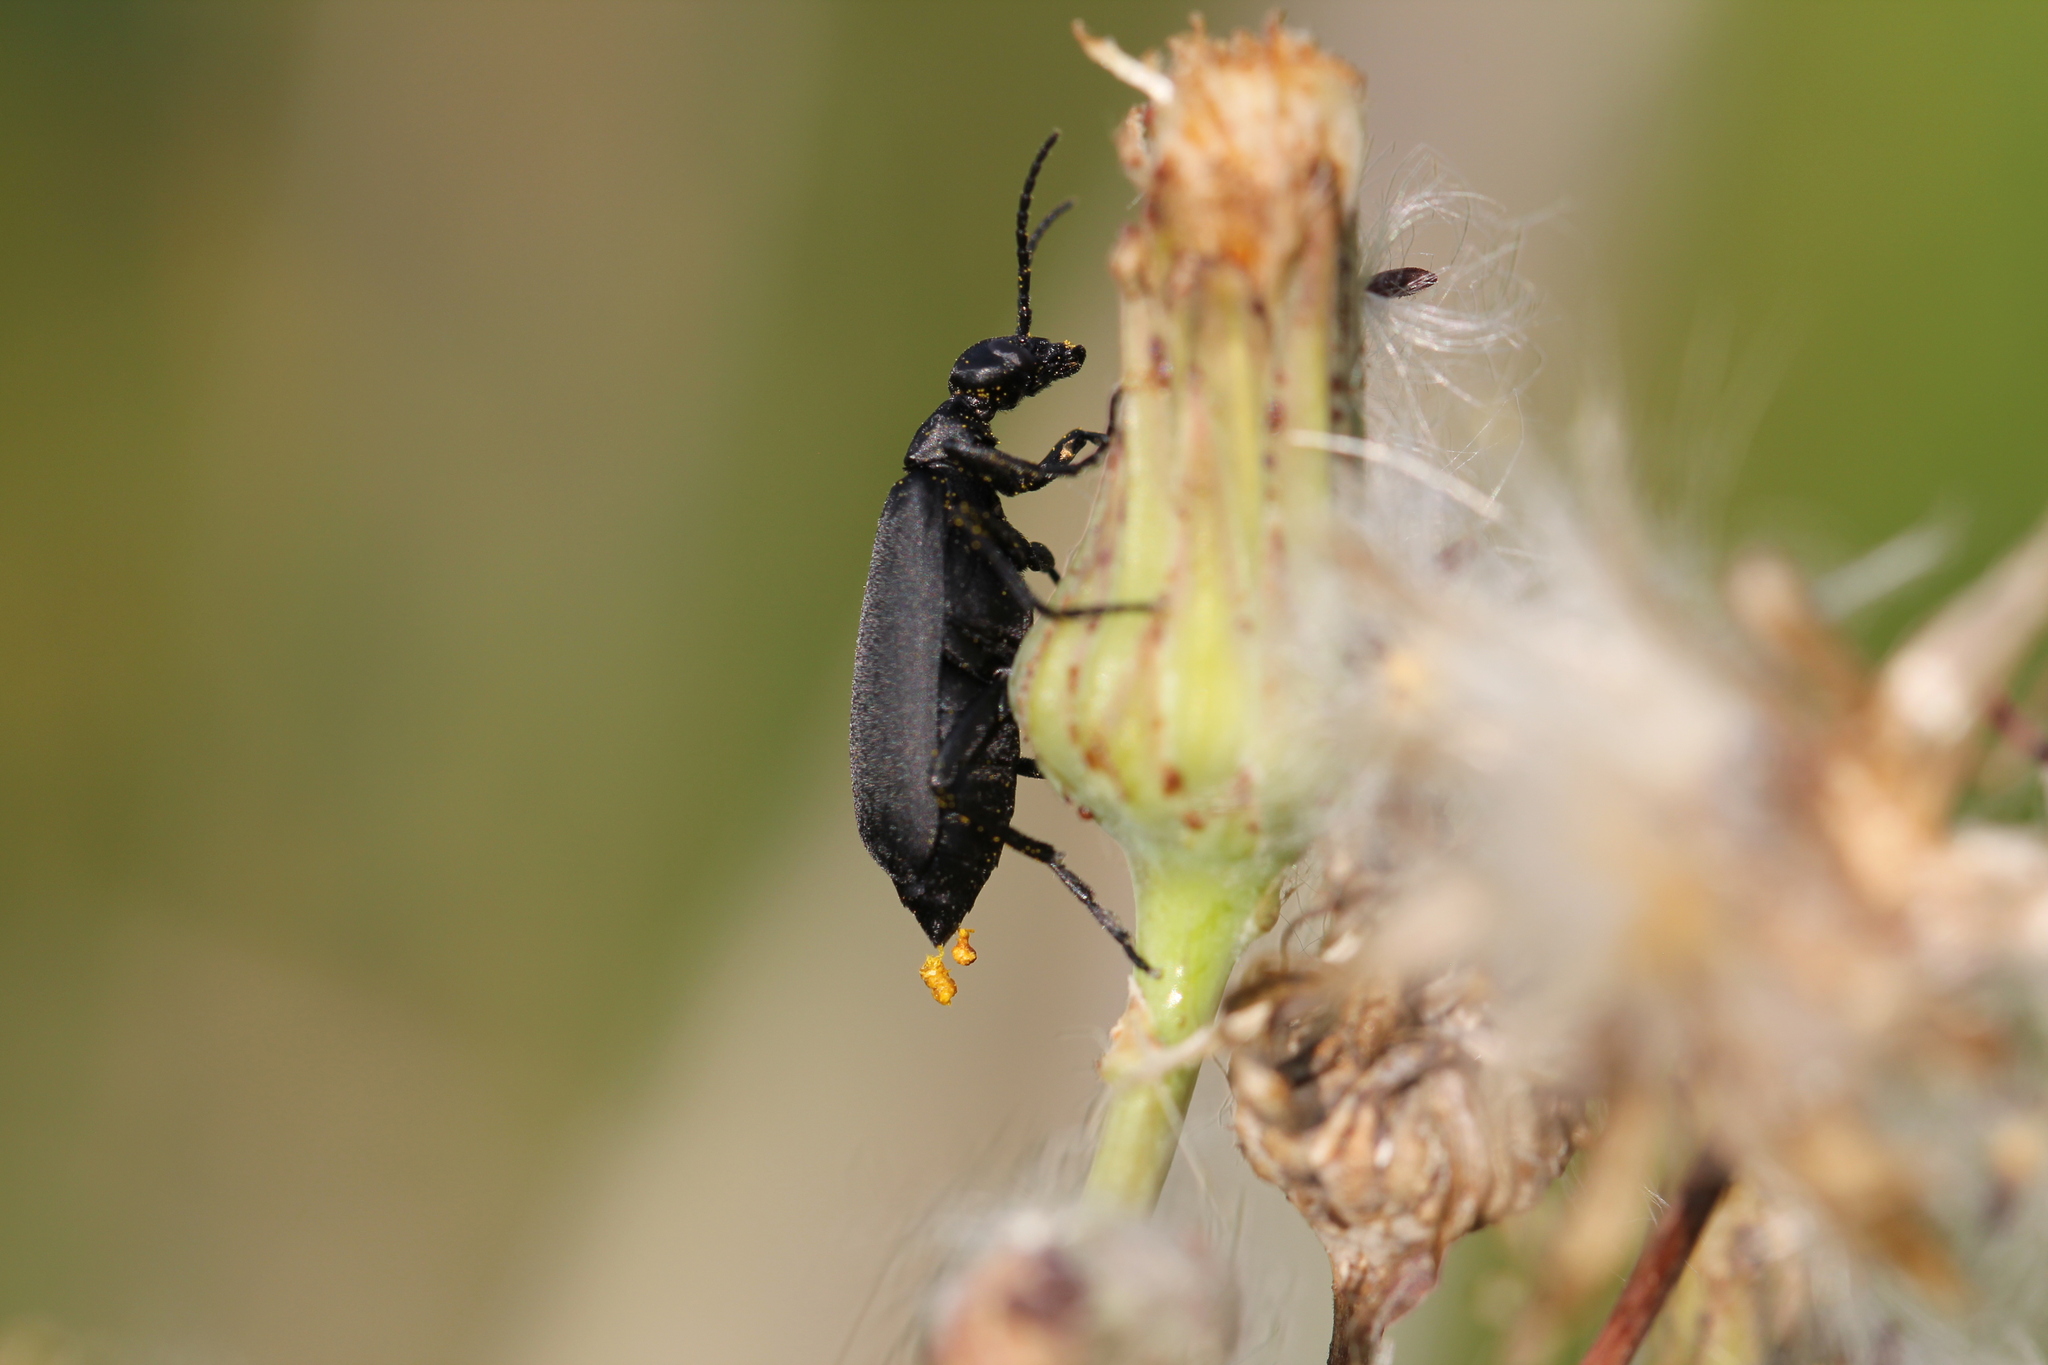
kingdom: Animalia
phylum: Arthropoda
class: Insecta
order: Coleoptera
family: Meloidae
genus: Epicauta
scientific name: Epicauta pensylvanica
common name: Black blister beetle
